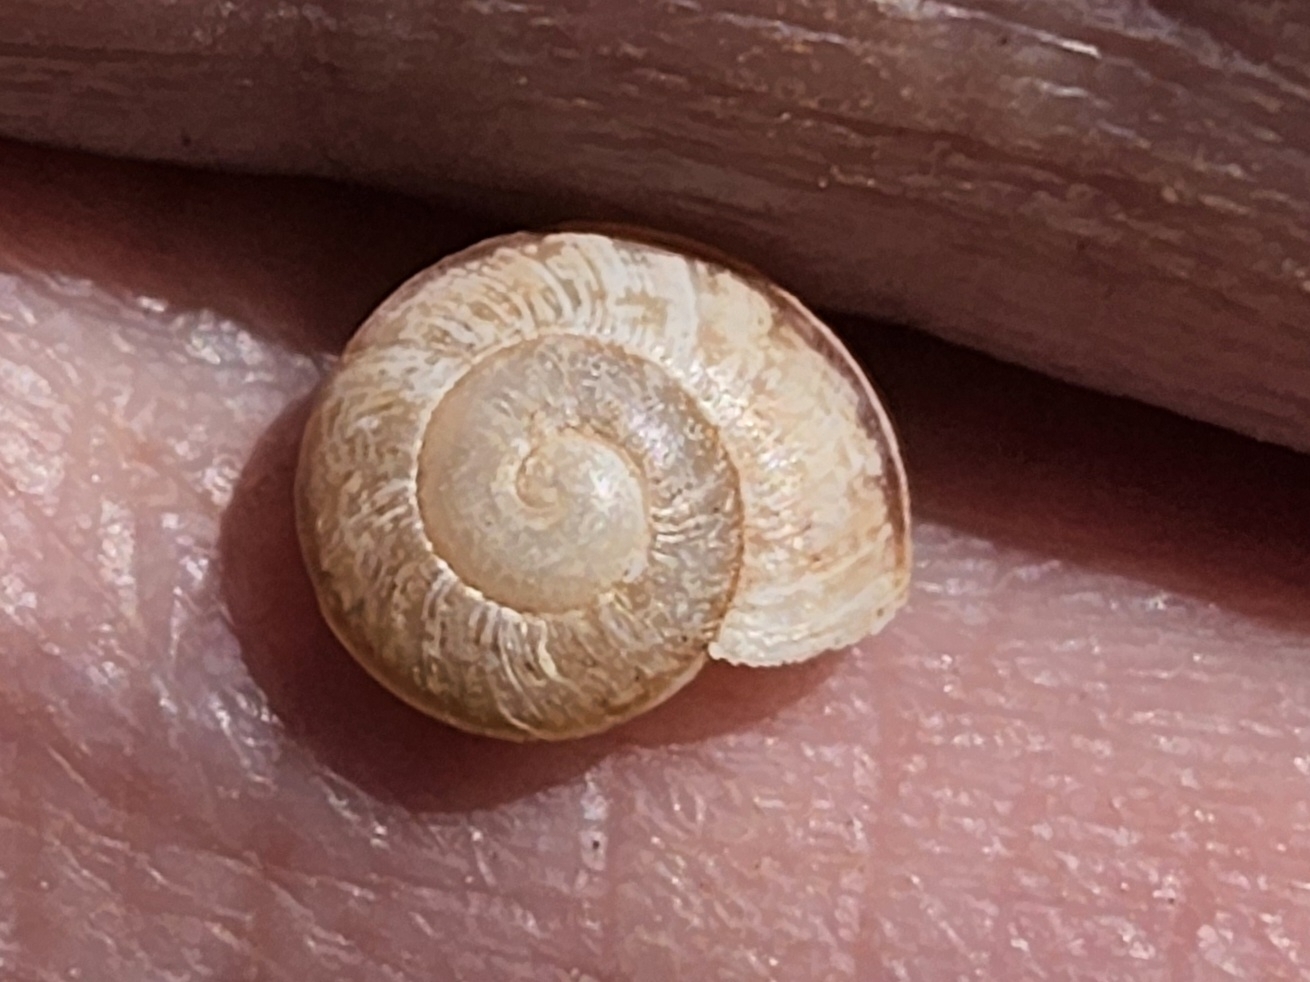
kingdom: Animalia
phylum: Mollusca
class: Gastropoda
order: Stylommatophora
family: Xanthonychidae
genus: Xerarionta
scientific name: Xerarionta kellettii
